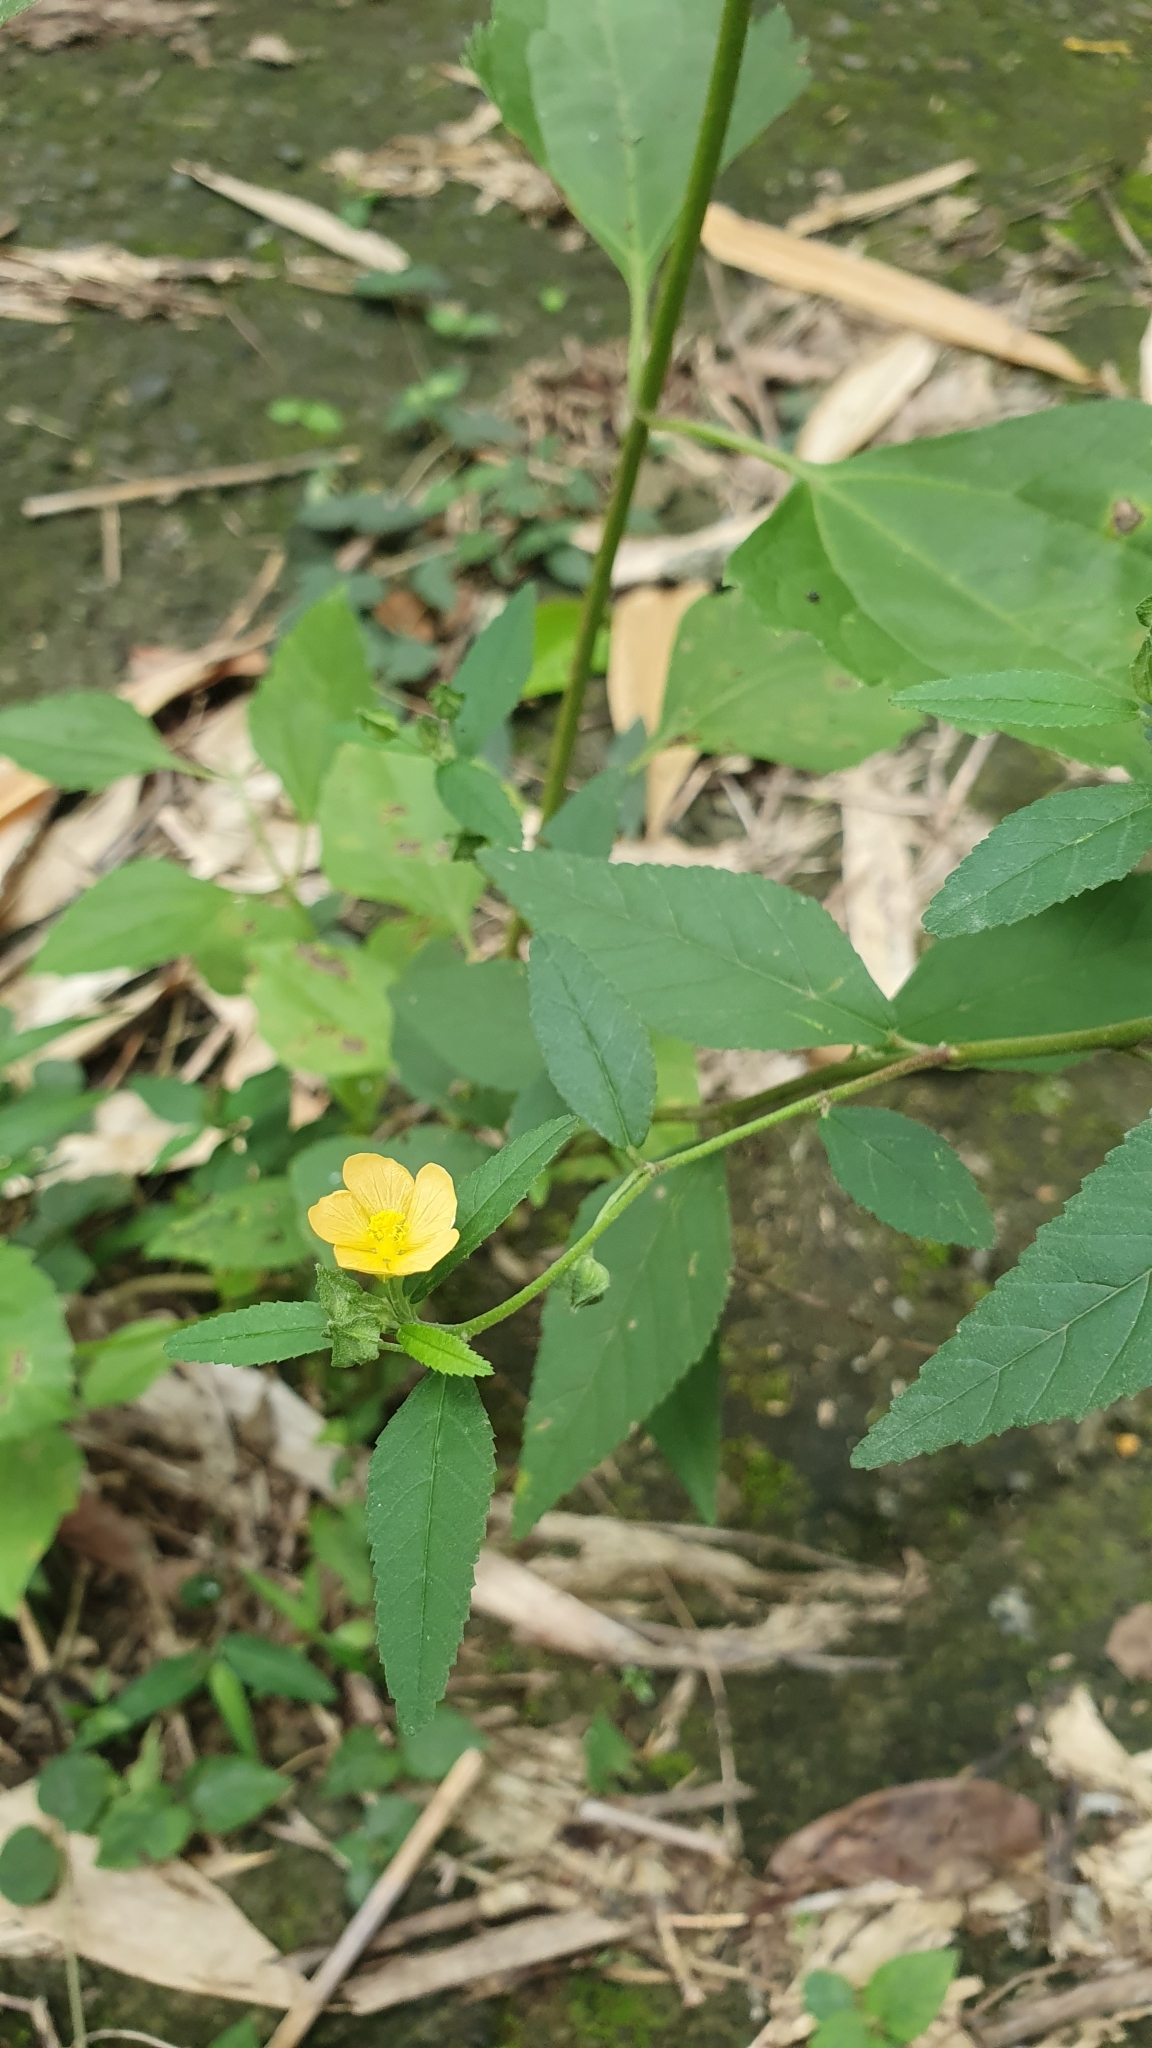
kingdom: Plantae
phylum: Tracheophyta
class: Magnoliopsida
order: Malvales
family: Malvaceae
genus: Sida
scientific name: Sida rhombifolia
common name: Queensland-hemp
